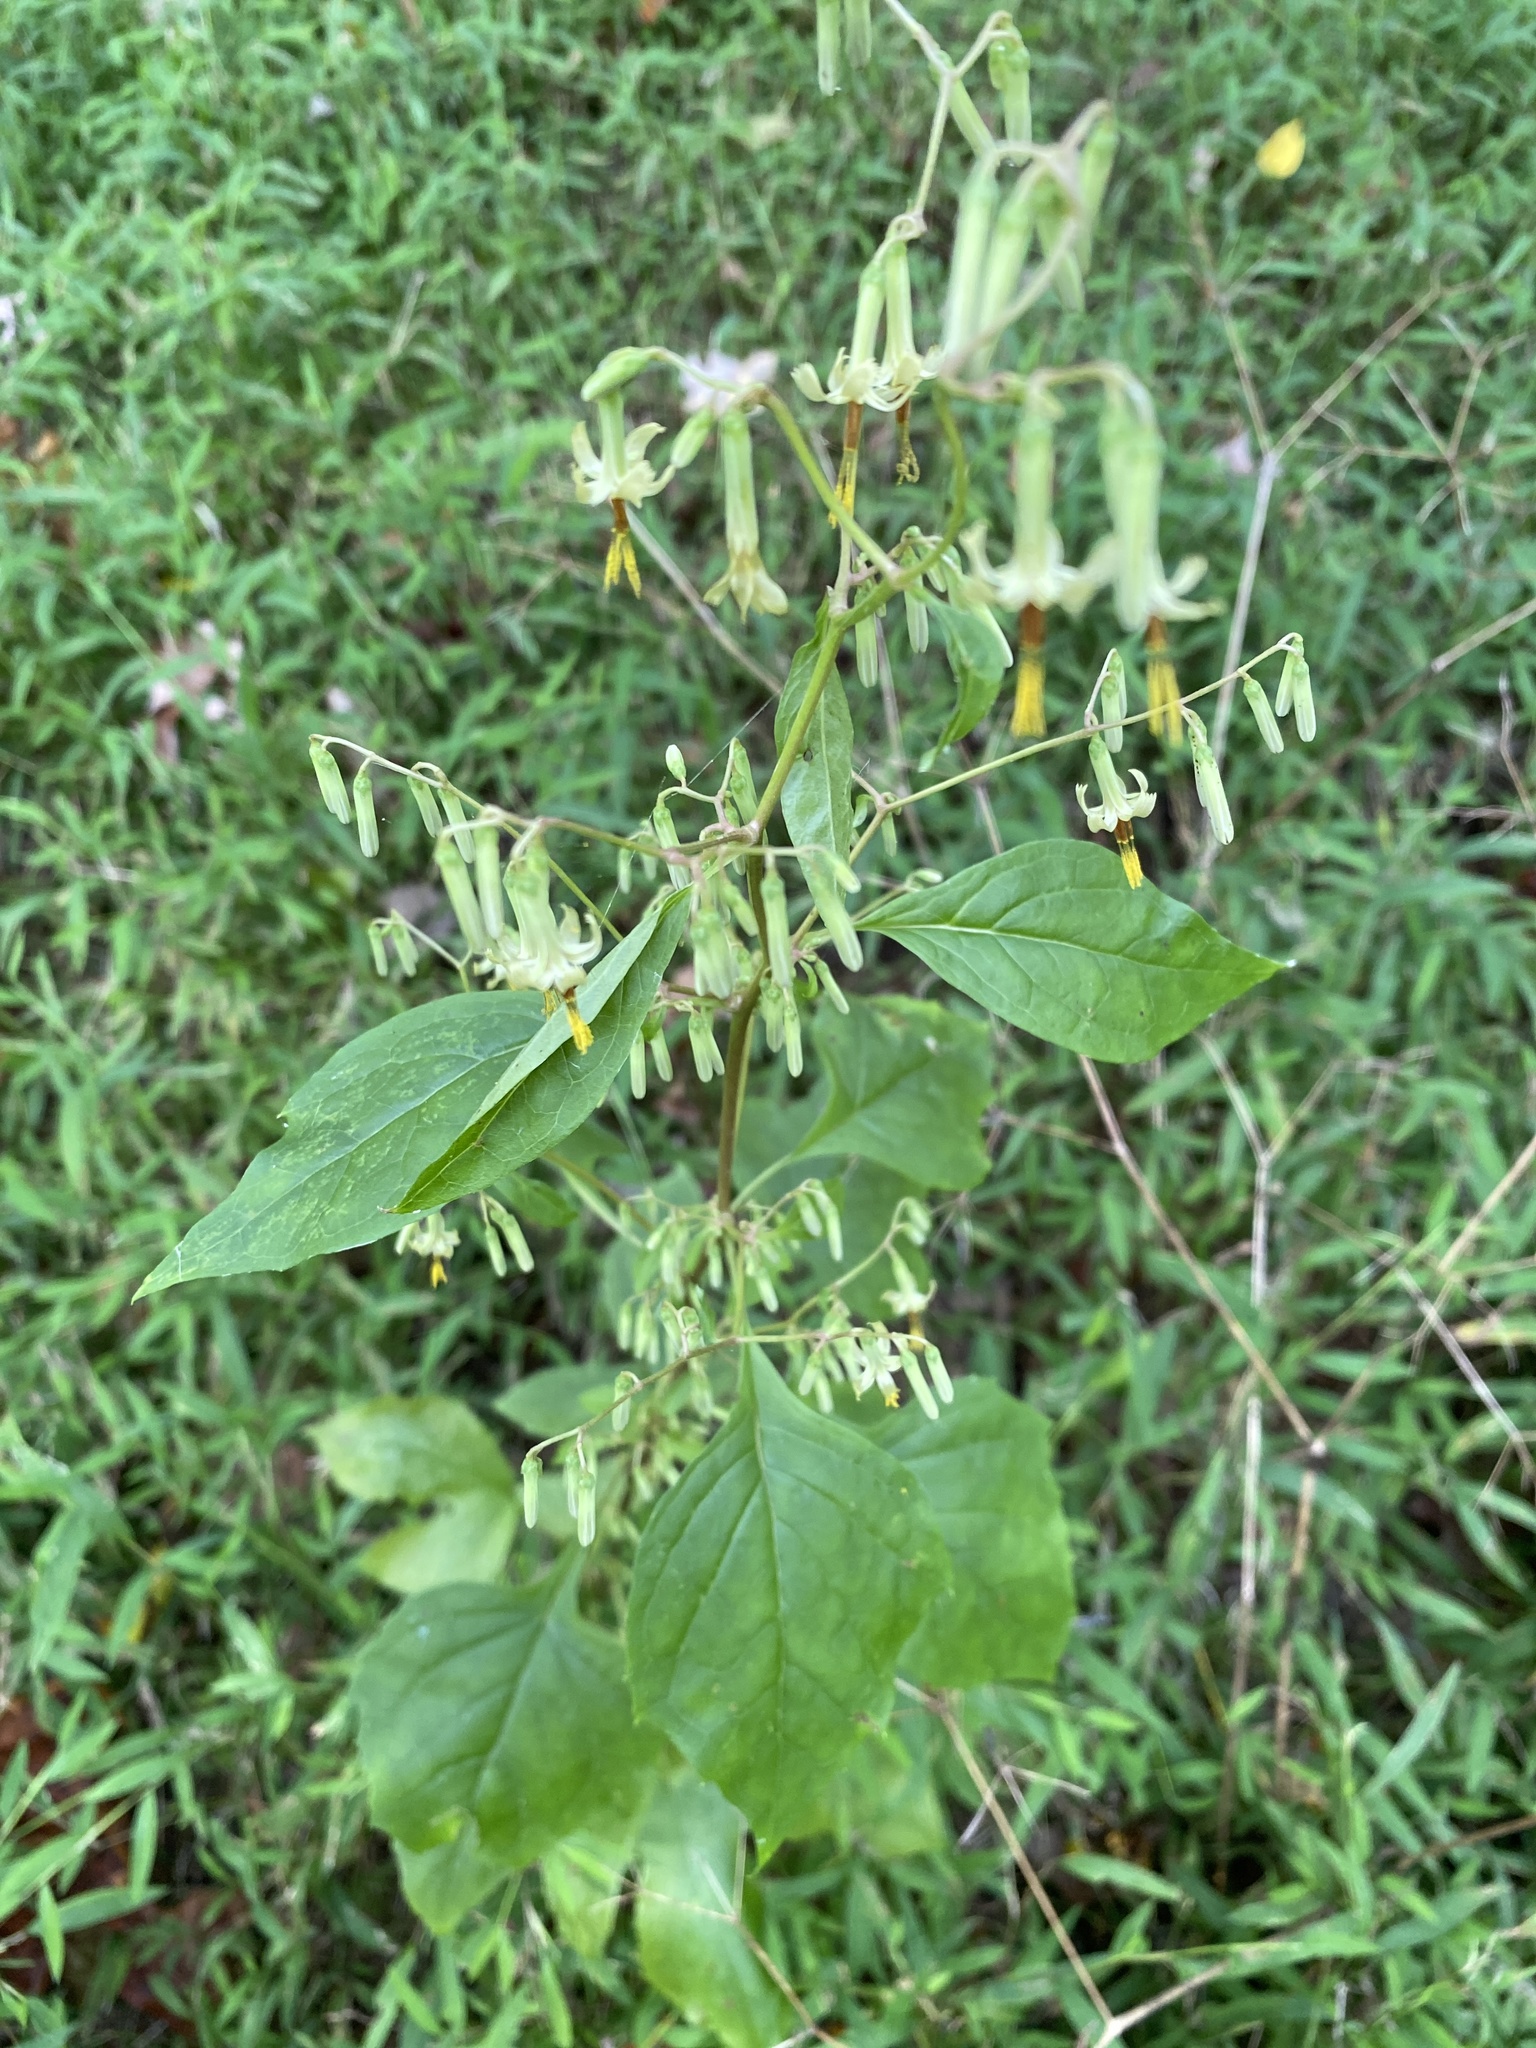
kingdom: Plantae
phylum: Tracheophyta
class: Magnoliopsida
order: Asterales
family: Asteraceae
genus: Nabalus
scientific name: Nabalus altissima
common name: Tall rattlesnakeroot
